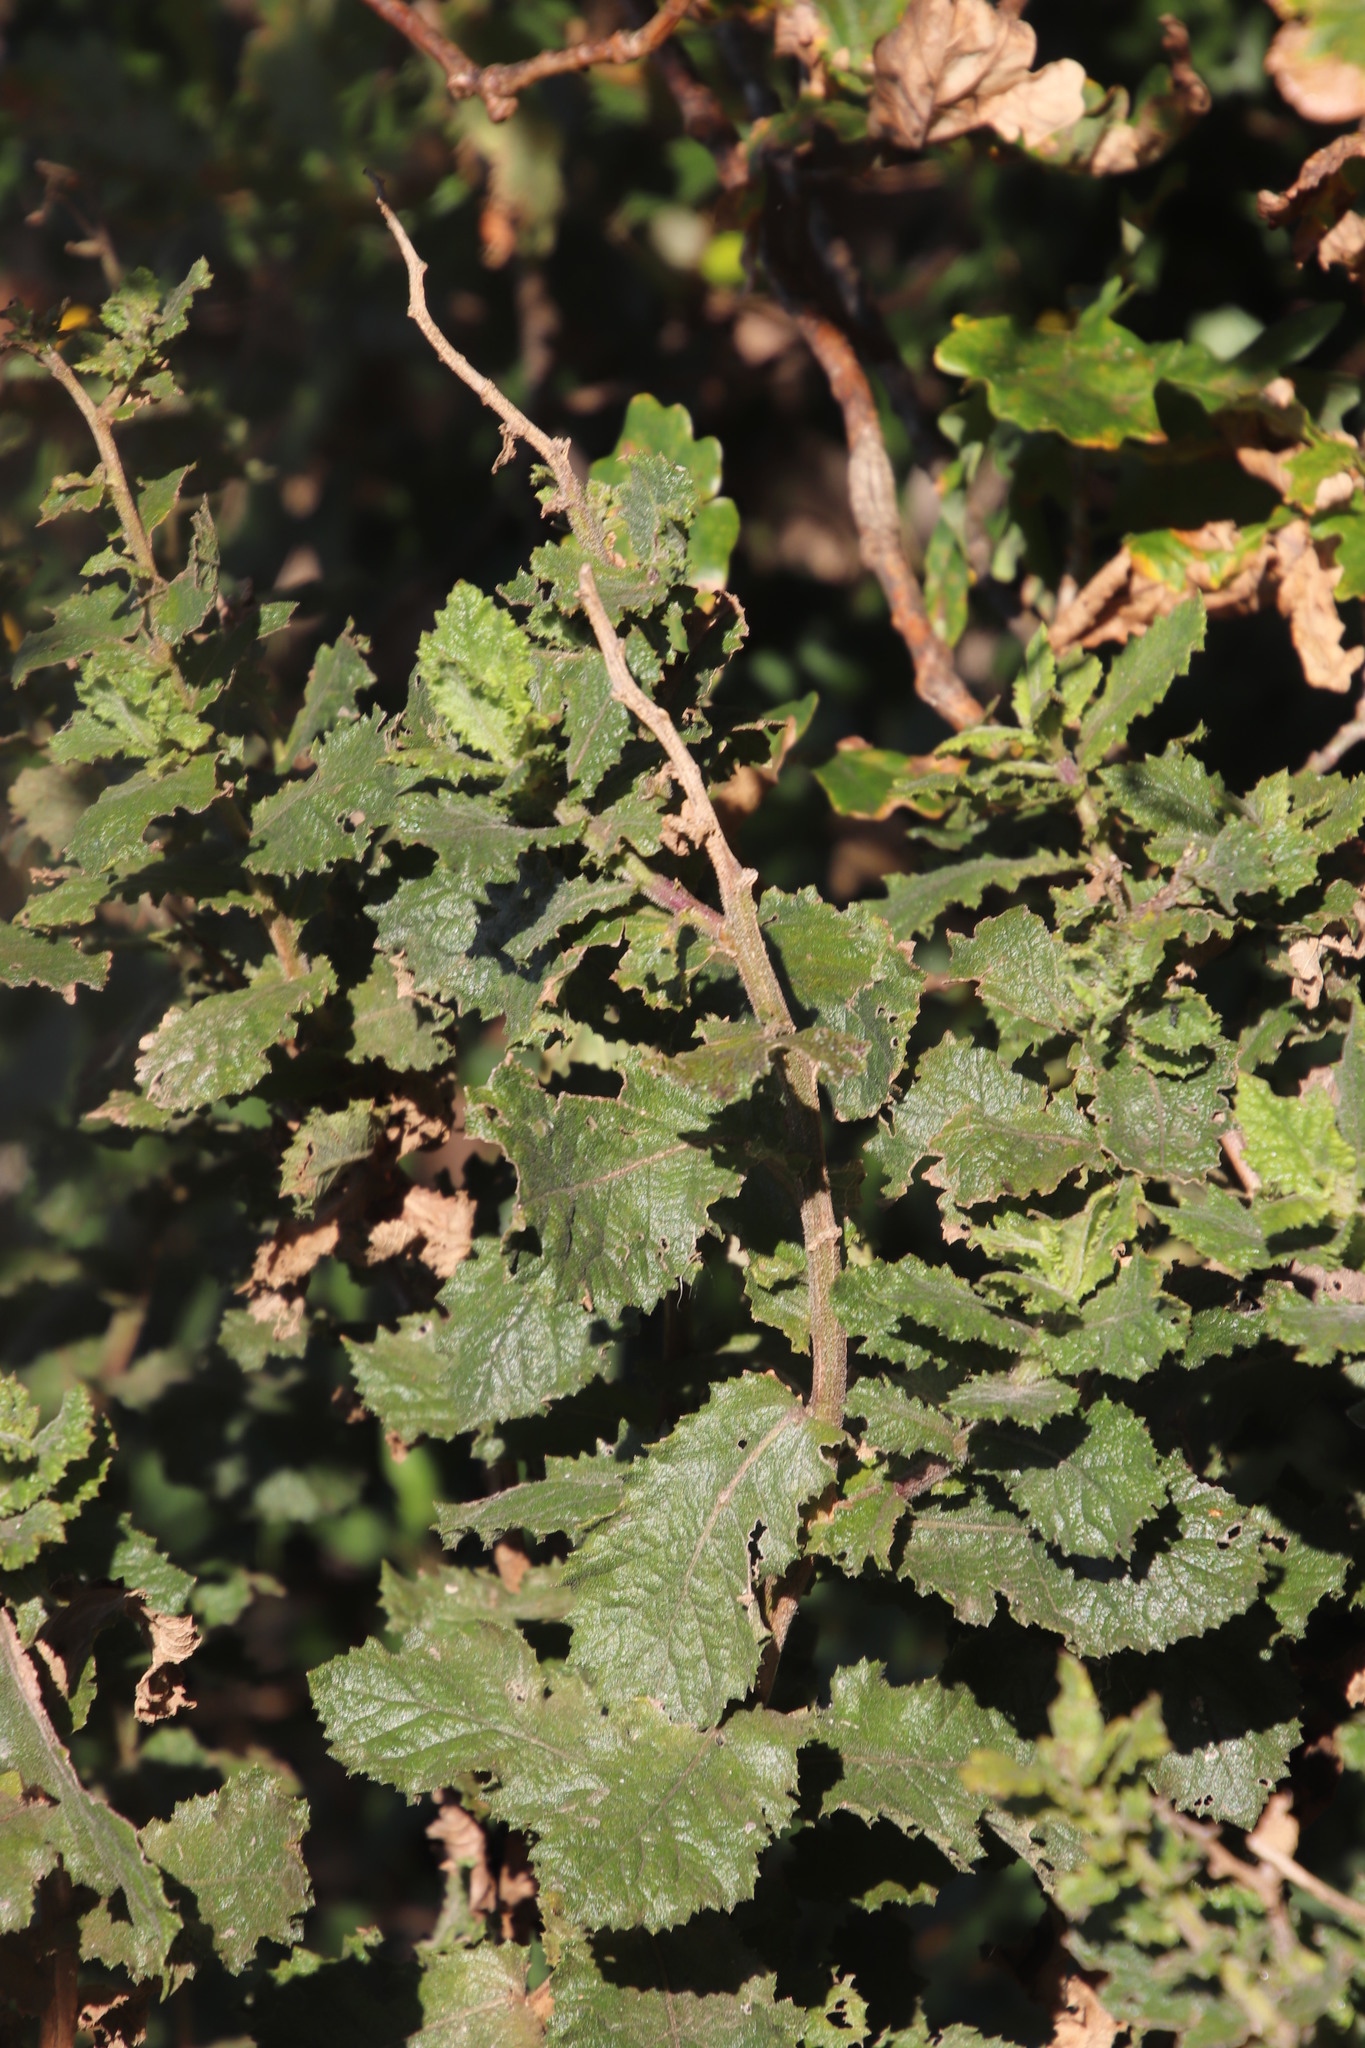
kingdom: Plantae
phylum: Tracheophyta
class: Magnoliopsida
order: Asterales
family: Asteraceae
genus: Senecio
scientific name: Senecio rigidus
